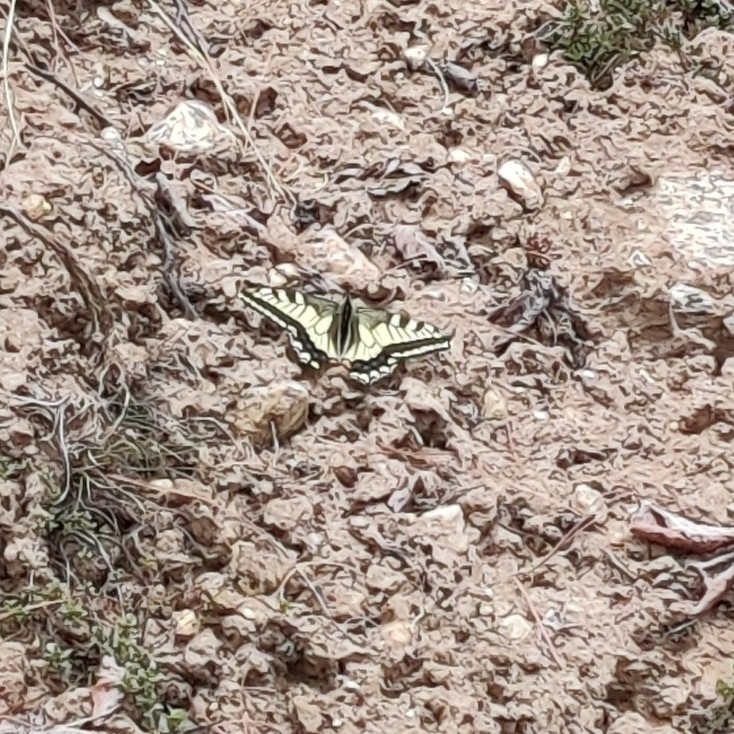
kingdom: Animalia
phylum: Arthropoda
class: Insecta
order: Lepidoptera
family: Papilionidae
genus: Papilio
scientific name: Papilio machaon
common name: Swallowtail
